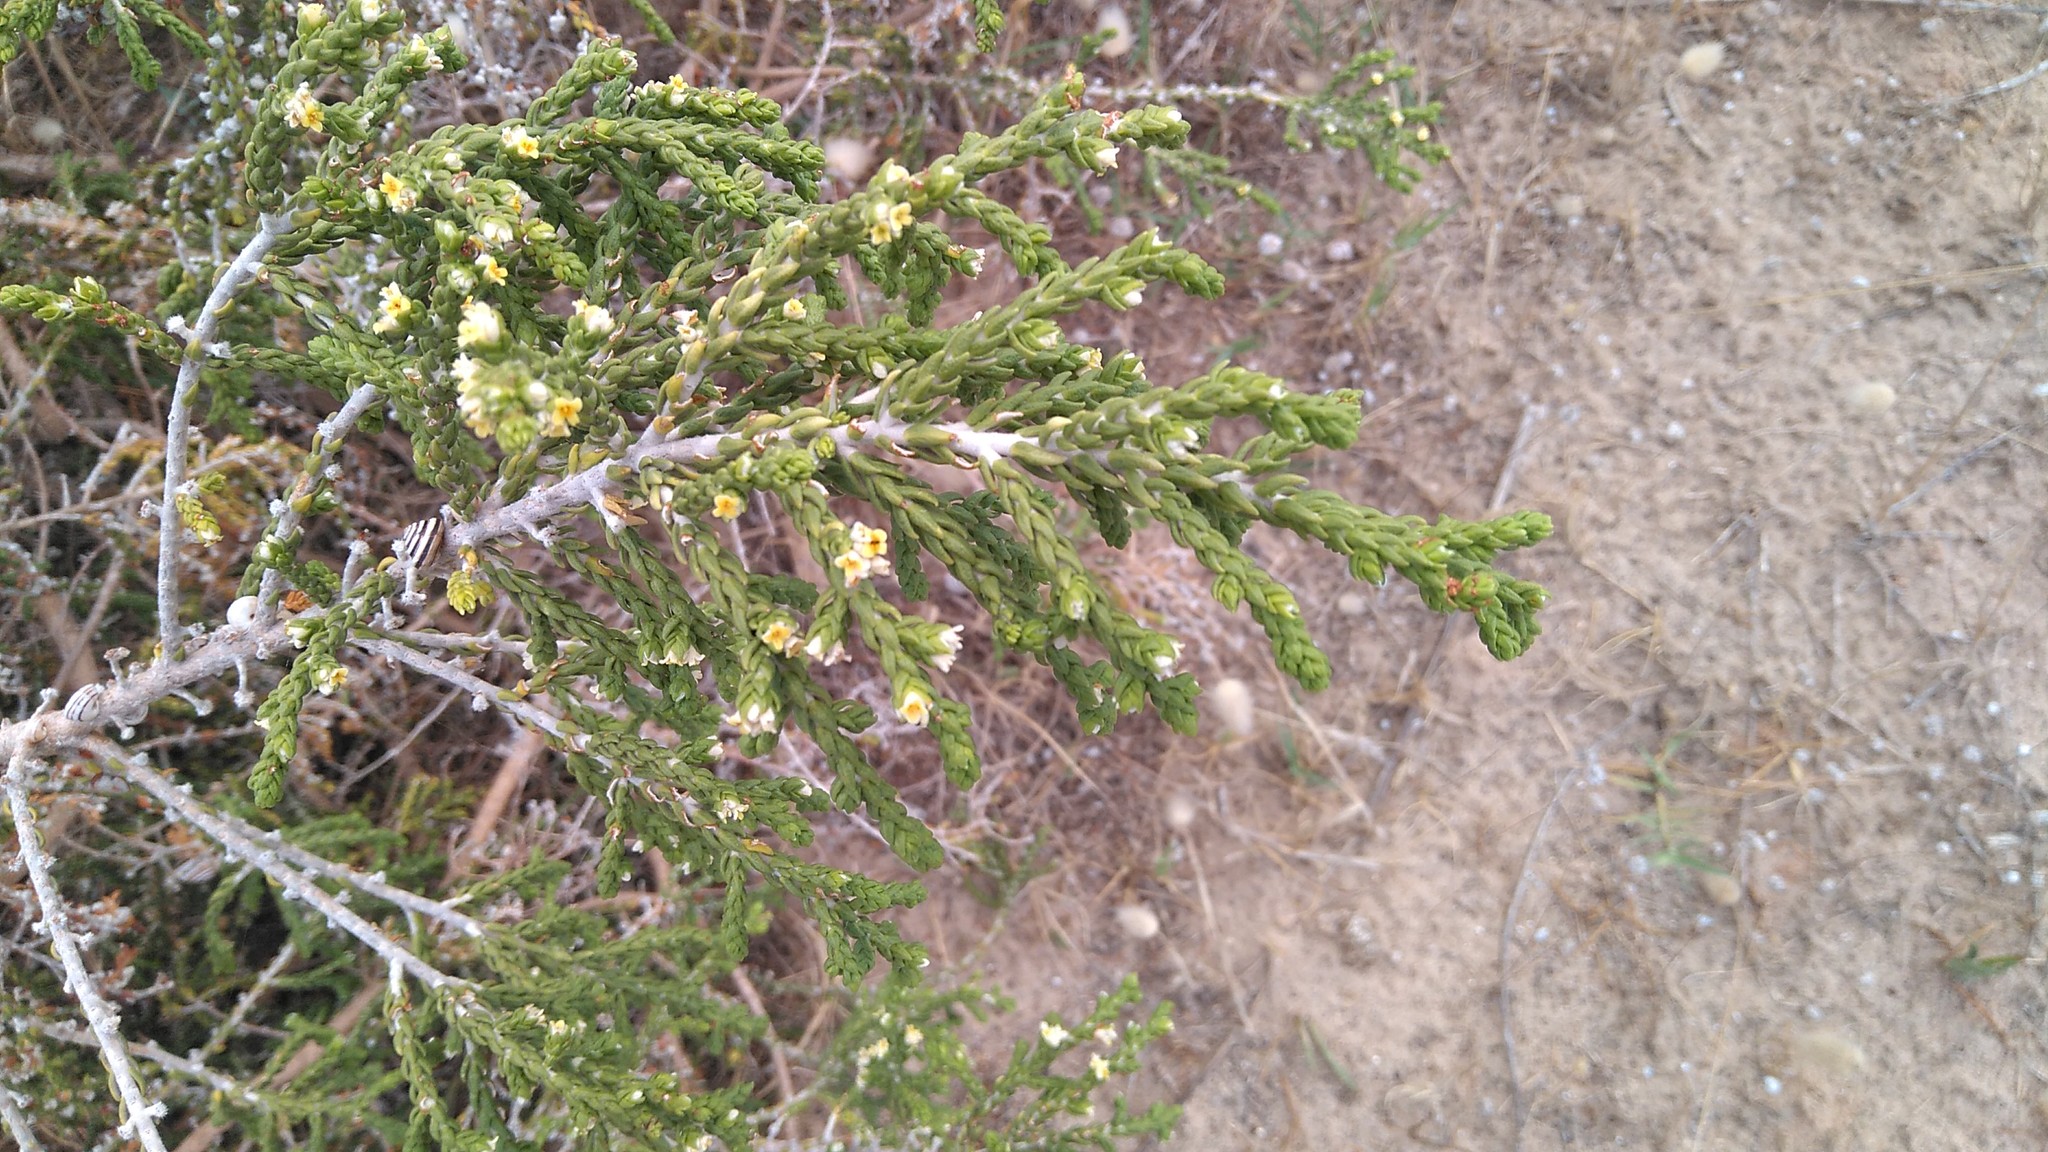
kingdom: Plantae
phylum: Tracheophyta
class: Magnoliopsida
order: Malvales
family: Thymelaeaceae
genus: Thymelaea
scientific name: Thymelaea hirsuta
